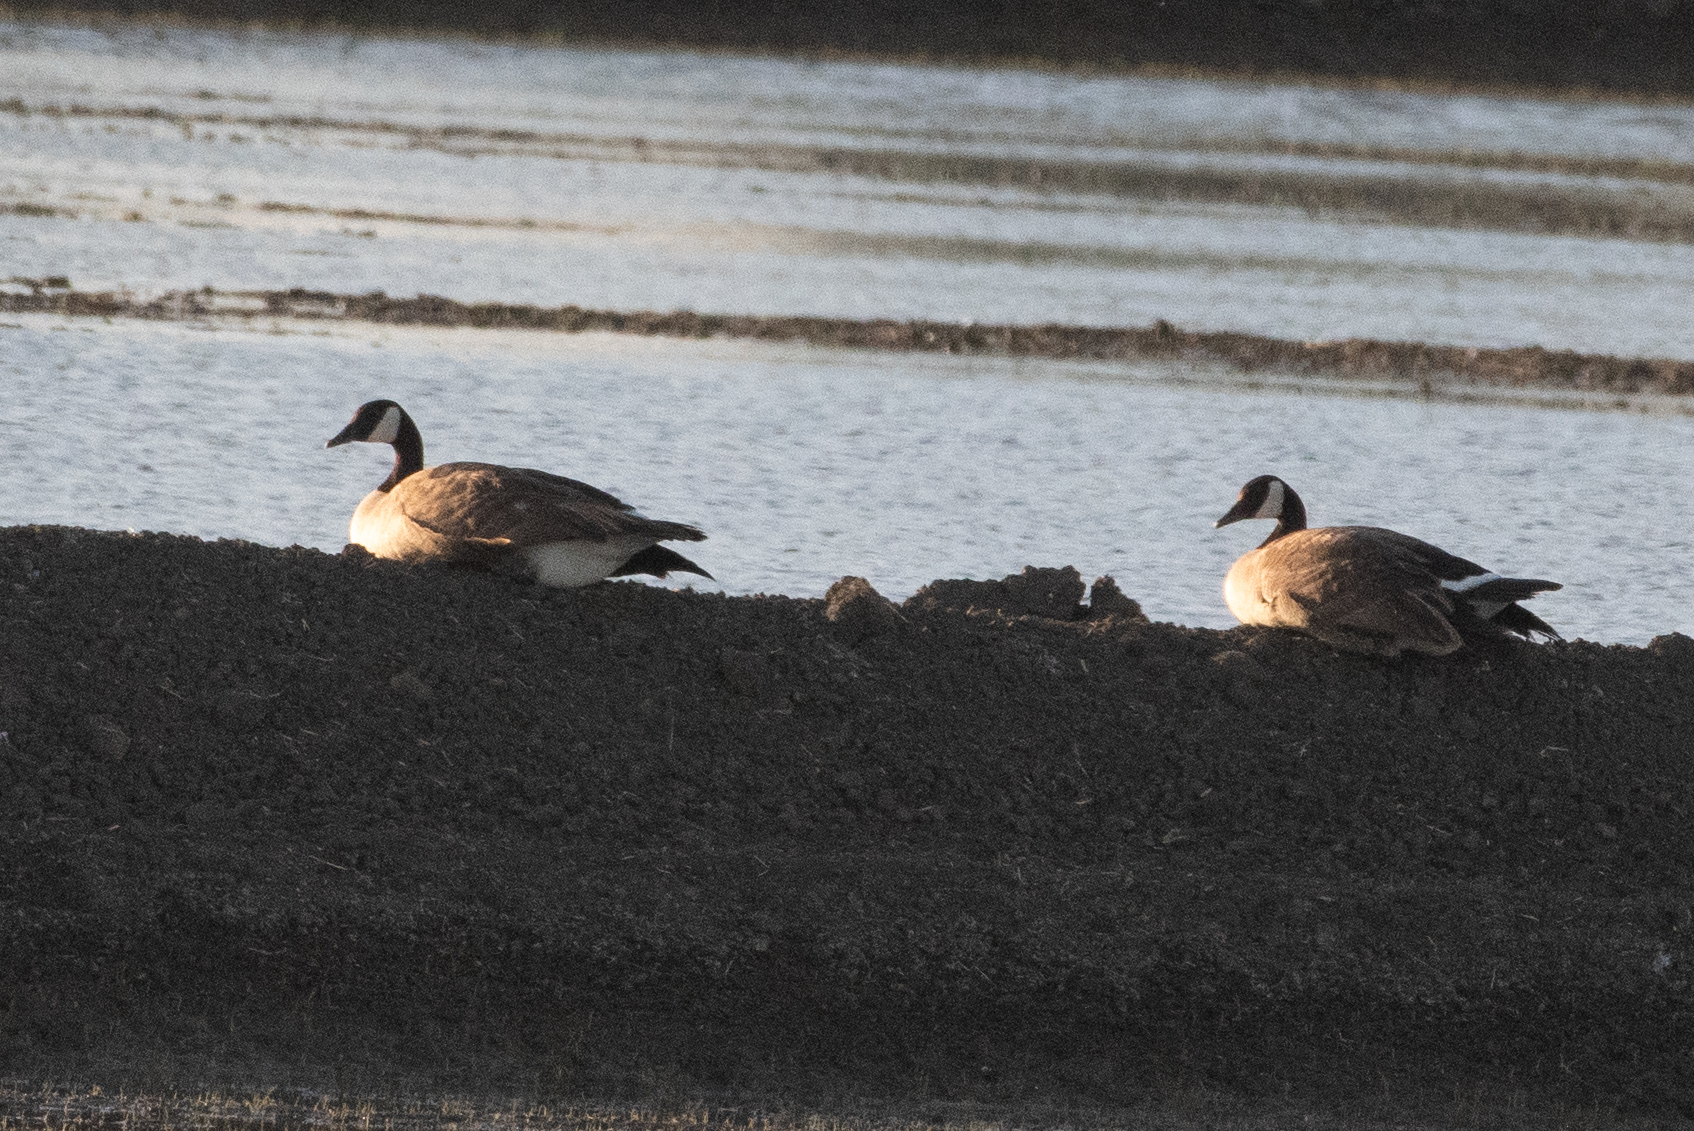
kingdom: Animalia
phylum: Chordata
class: Aves
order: Anseriformes
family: Anatidae
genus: Branta
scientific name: Branta canadensis
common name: Canada goose
